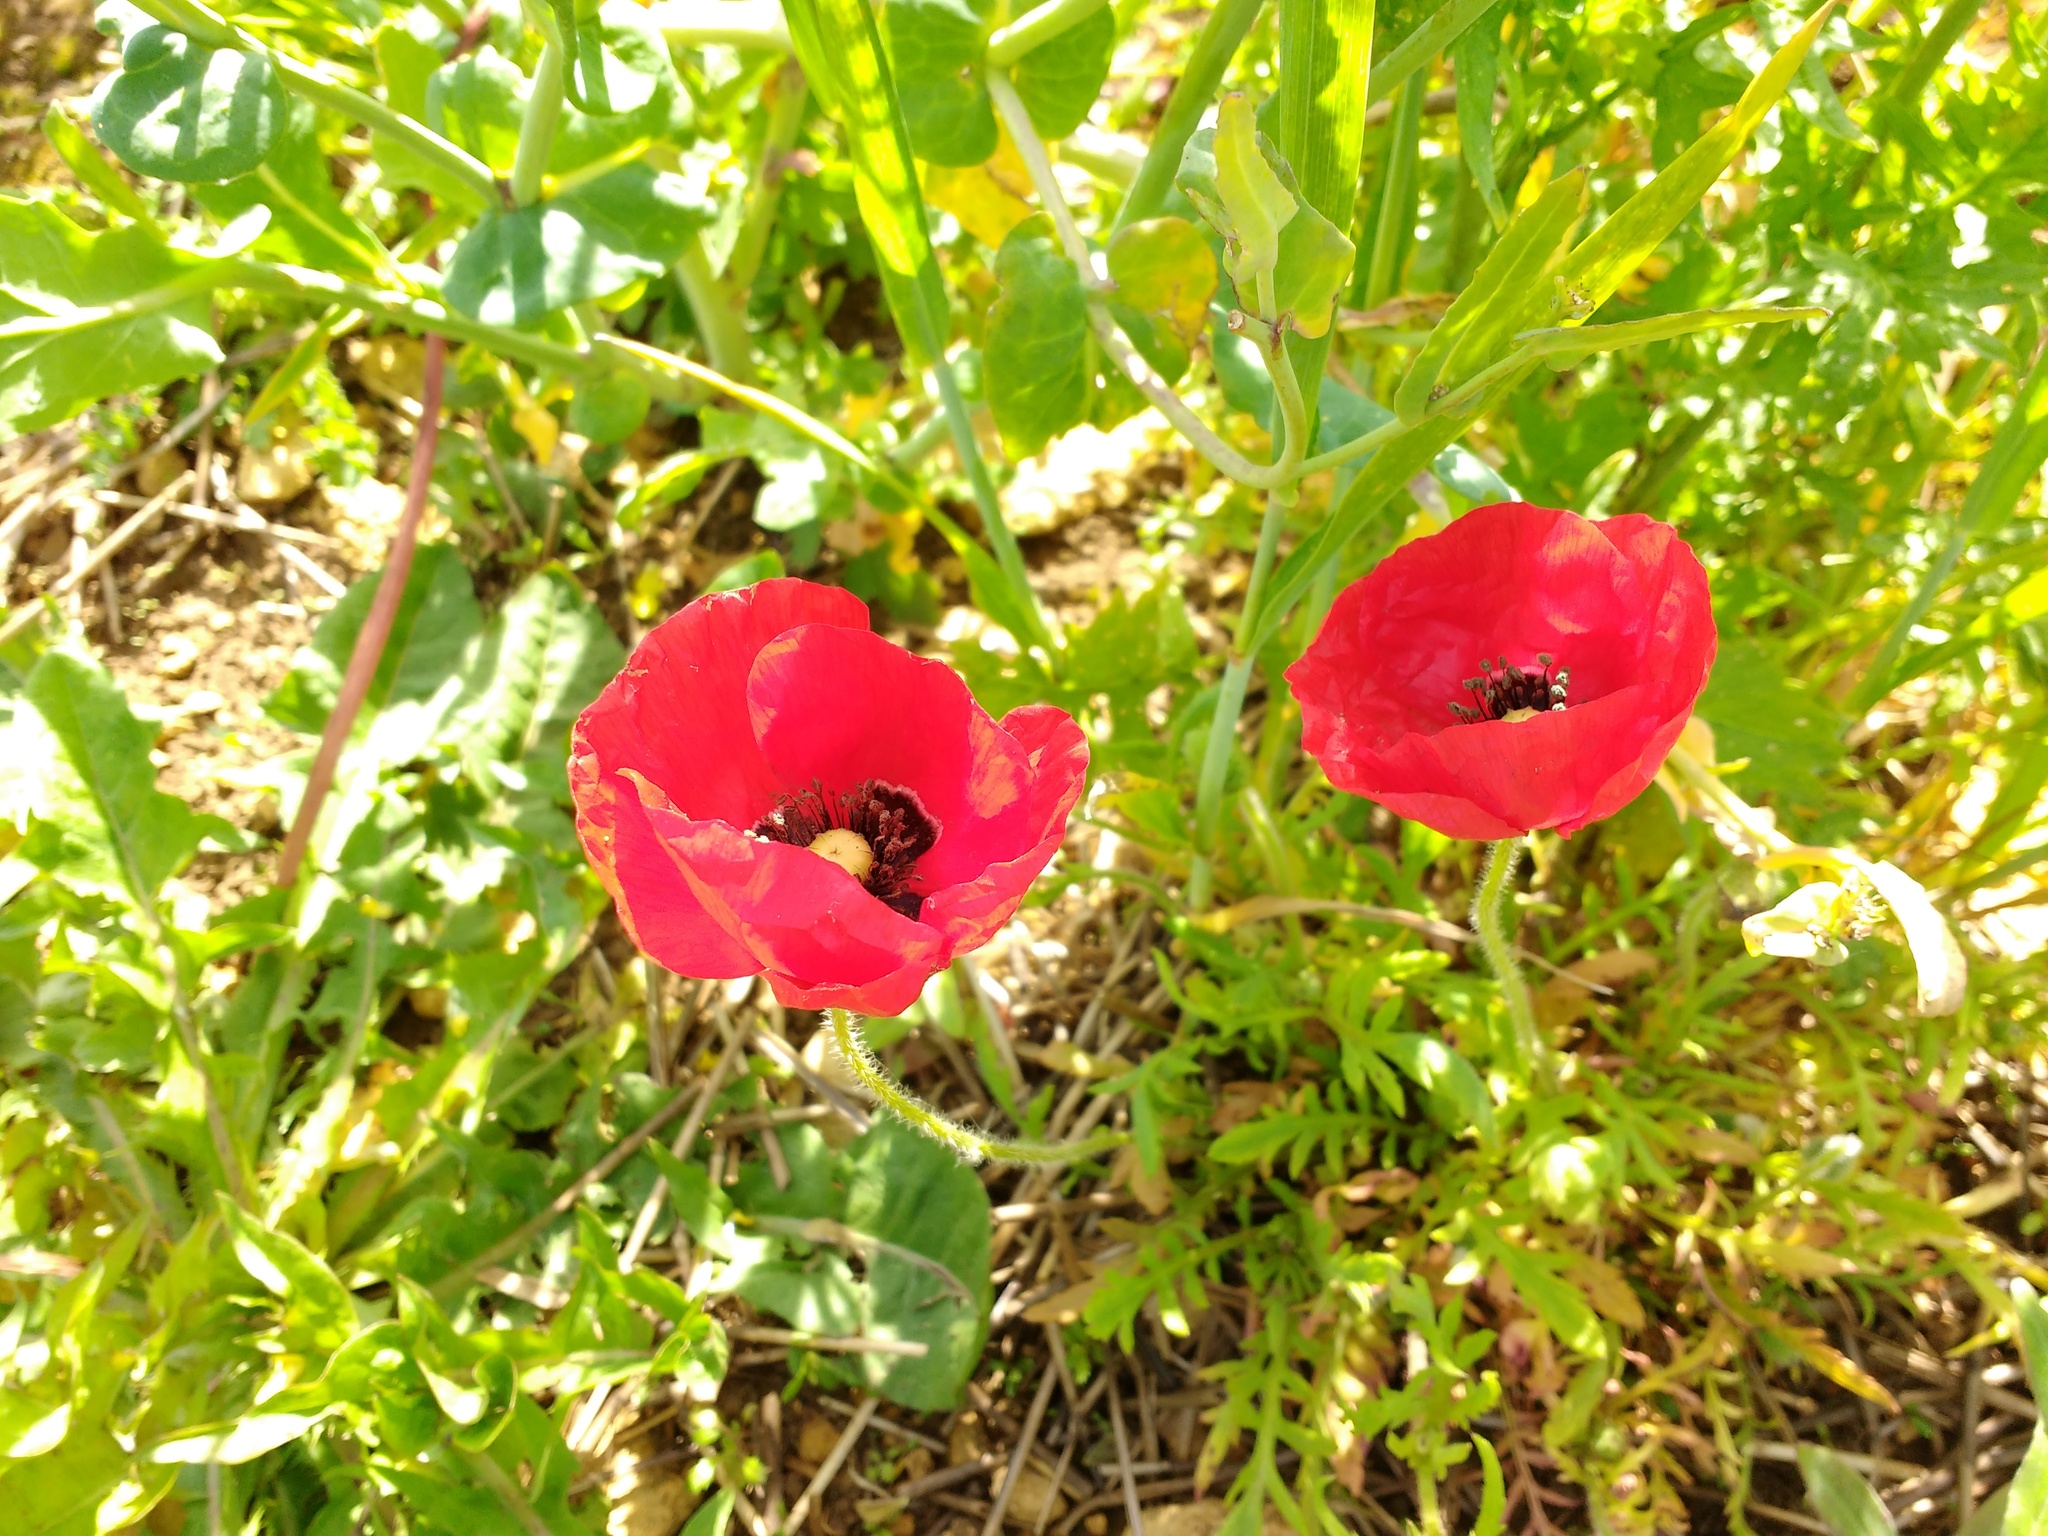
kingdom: Plantae
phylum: Tracheophyta
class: Magnoliopsida
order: Ranunculales
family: Papaveraceae
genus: Papaver
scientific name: Papaver rhoeas
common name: Corn poppy
